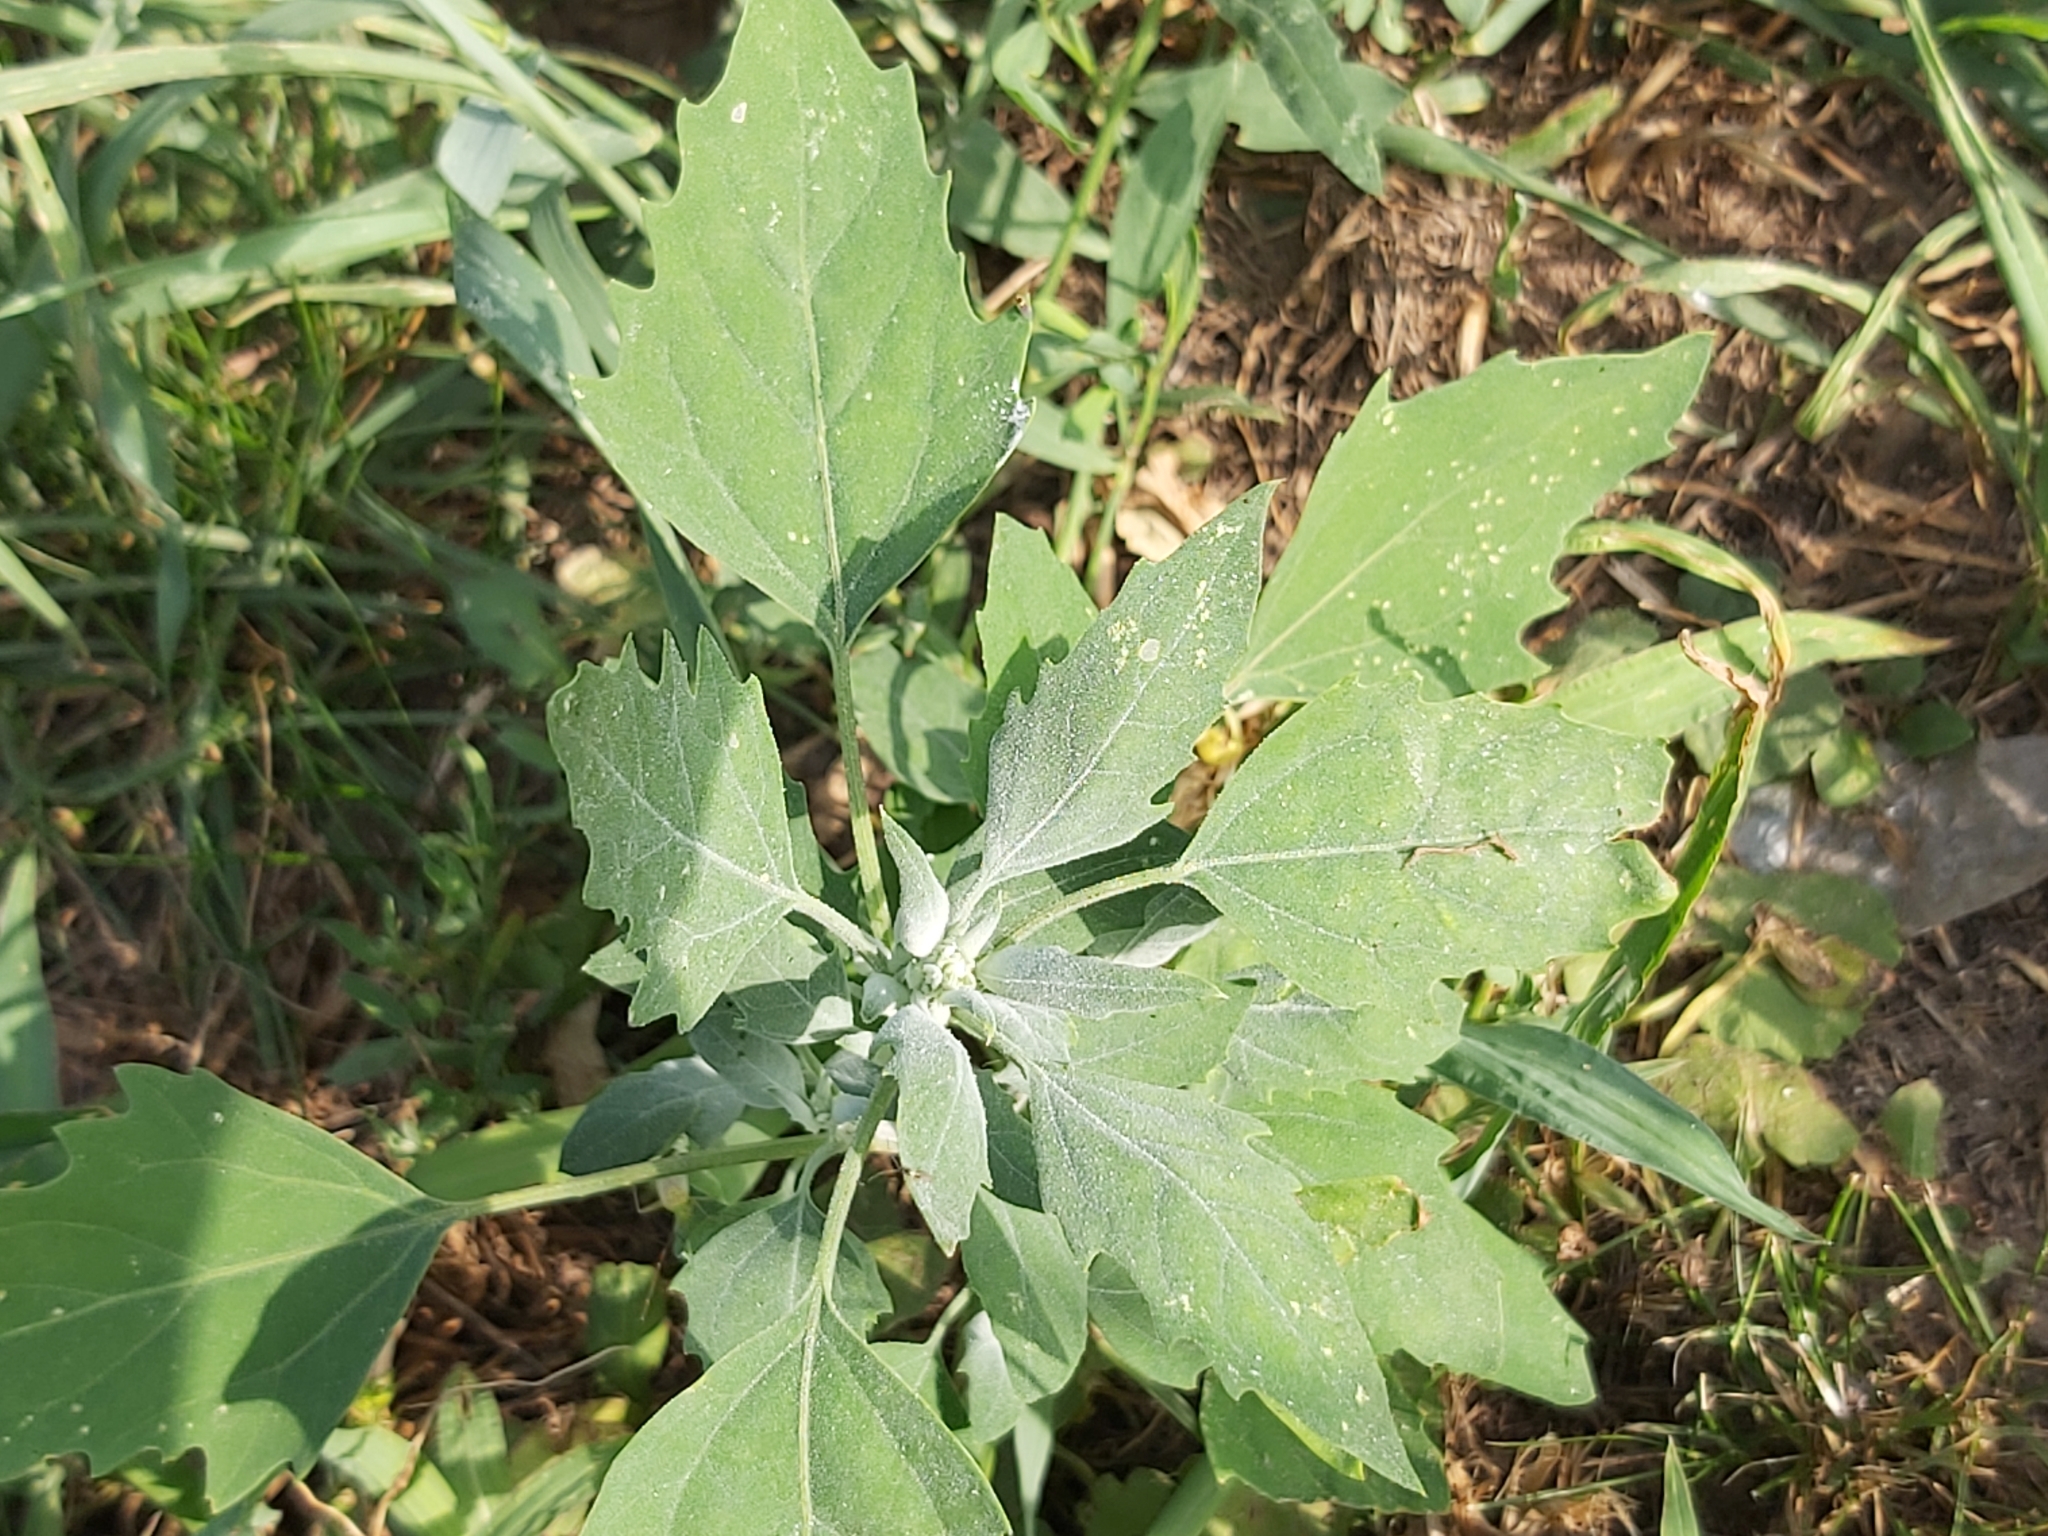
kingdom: Plantae
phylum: Tracheophyta
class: Magnoliopsida
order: Caryophyllales
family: Amaranthaceae
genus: Chenopodium
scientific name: Chenopodium album
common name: Fat-hen
